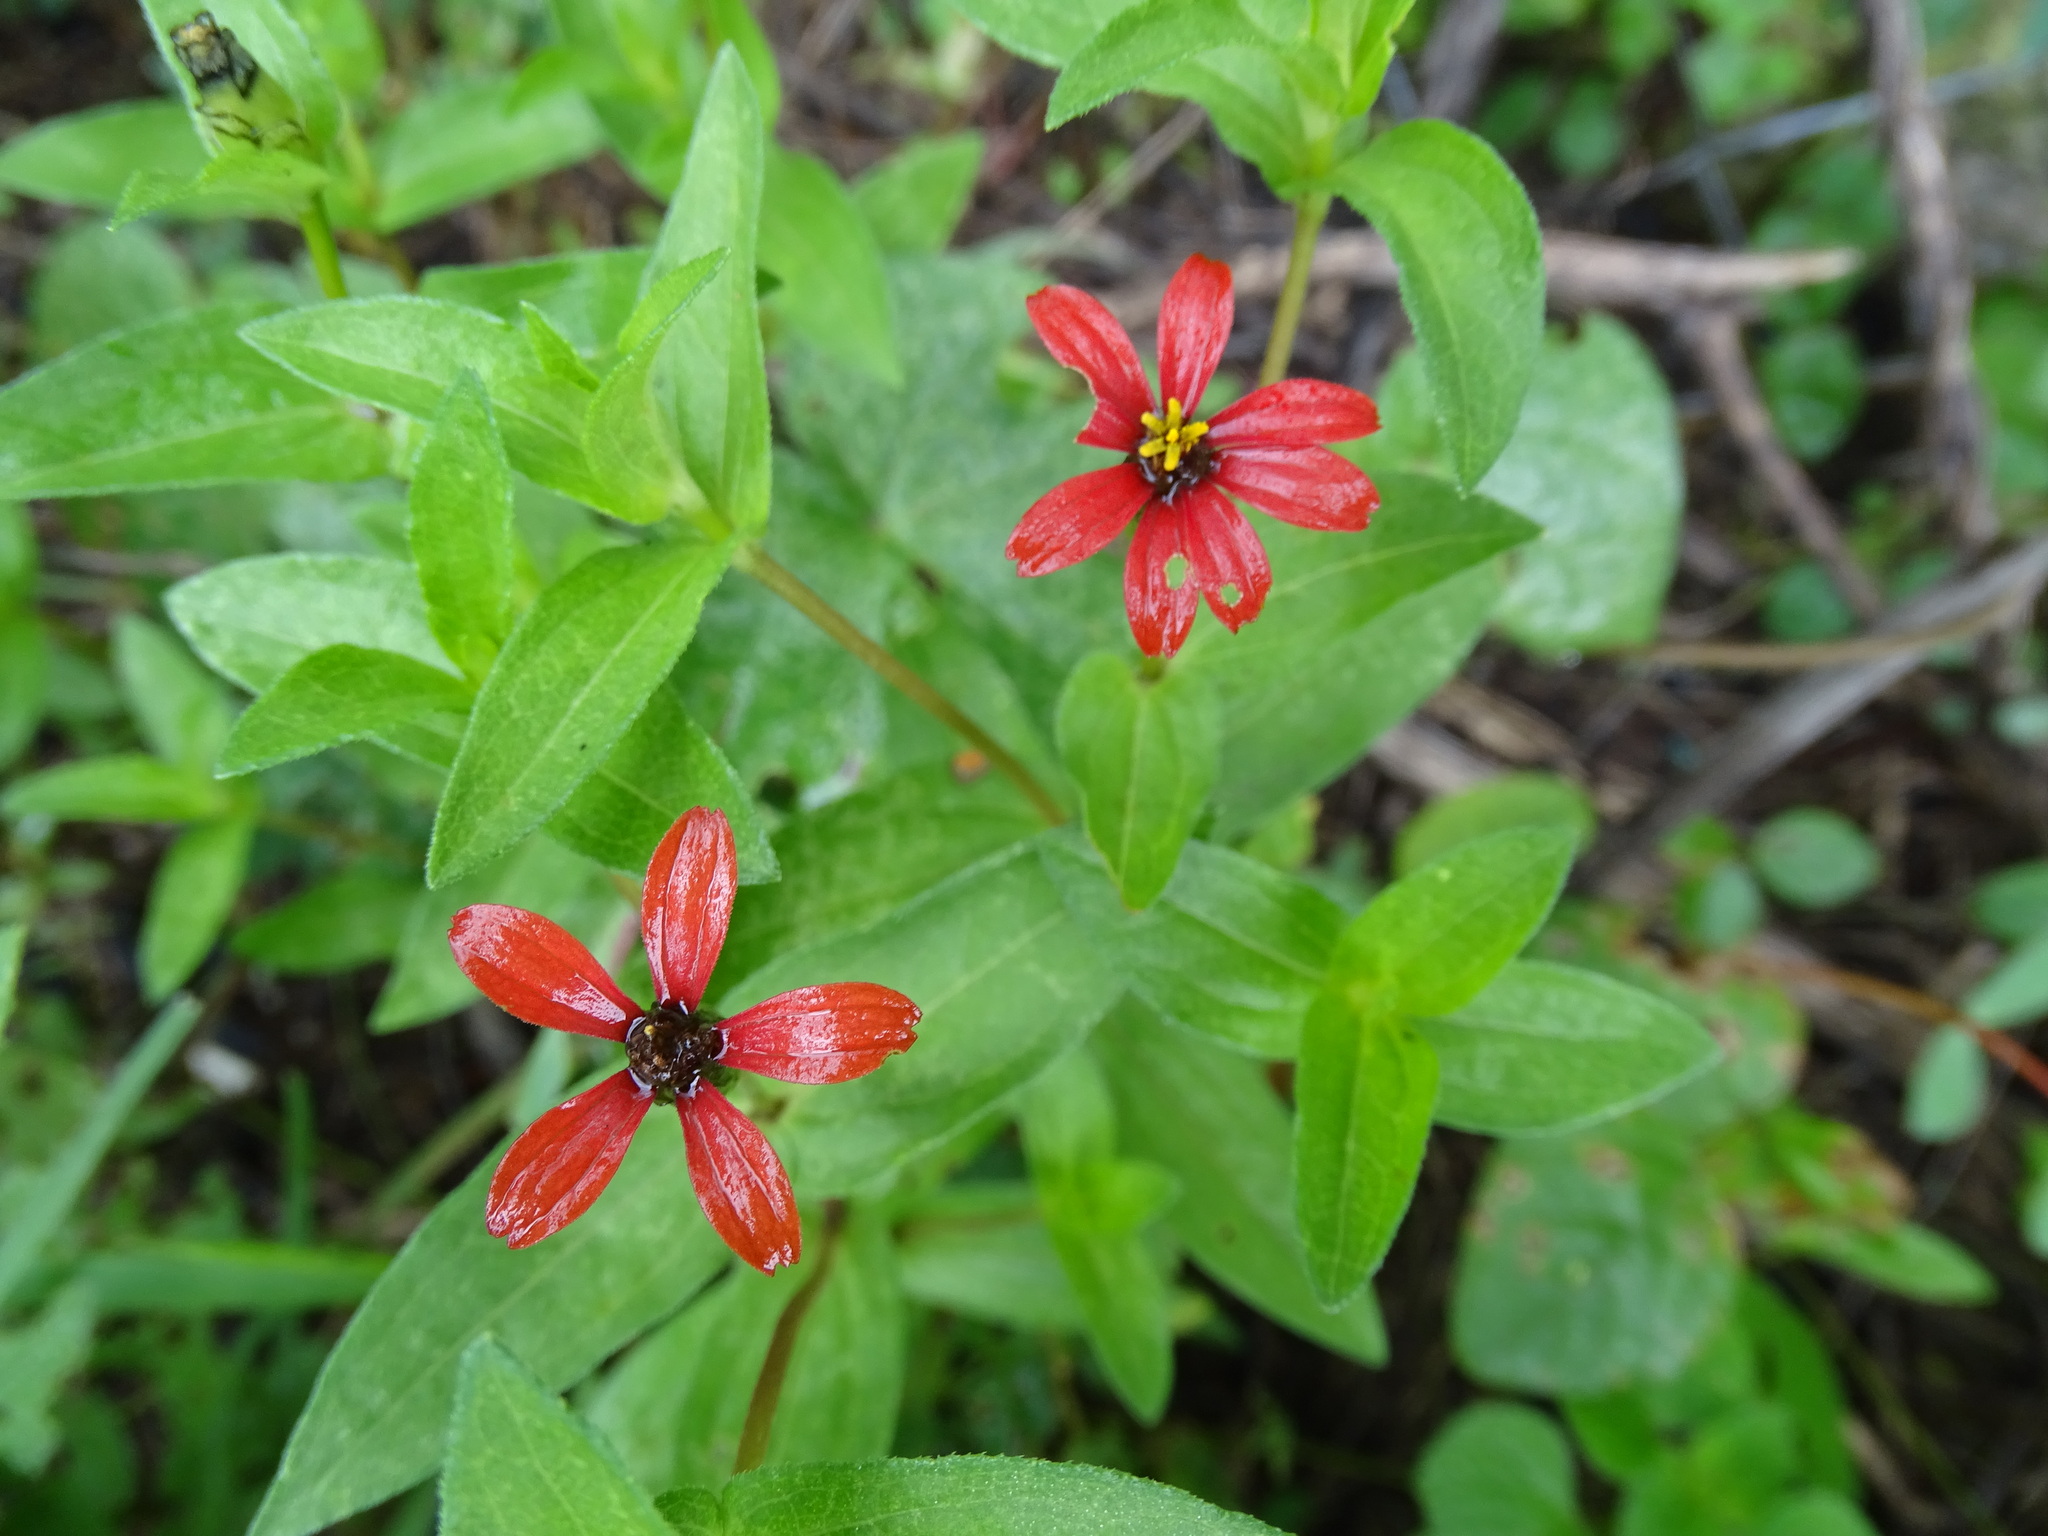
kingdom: Plantae
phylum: Tracheophyta
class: Magnoliopsida
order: Asterales
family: Asteraceae
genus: Zinnia
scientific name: Zinnia peruviana
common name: Peruvian zinnia
